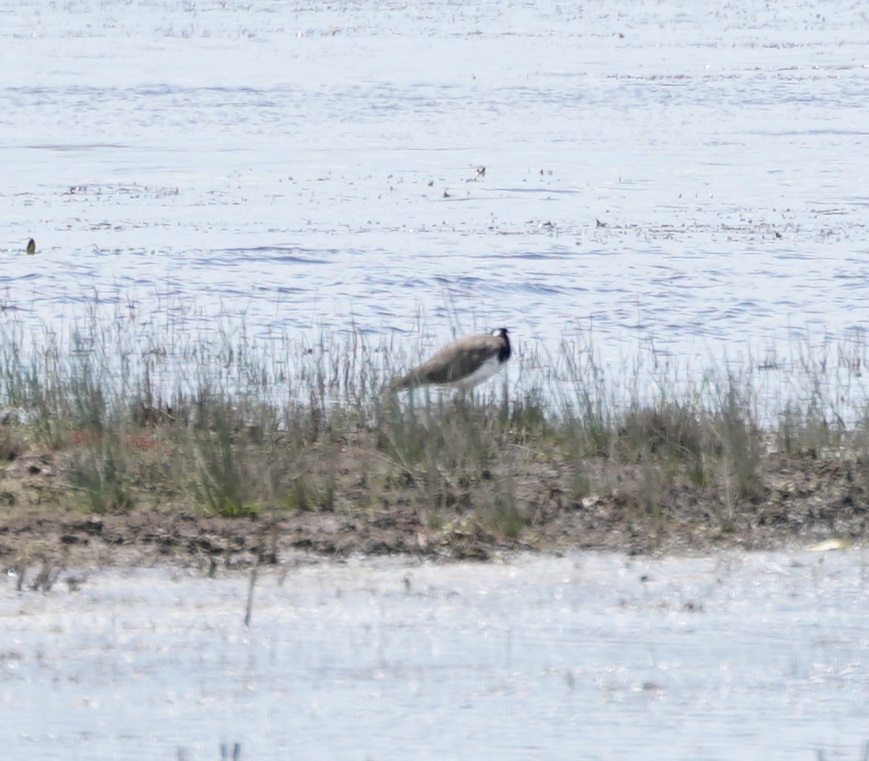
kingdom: Animalia
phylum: Chordata
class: Aves
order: Charadriiformes
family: Charadriidae
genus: Vanellus
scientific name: Vanellus miles
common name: Masked lapwing
